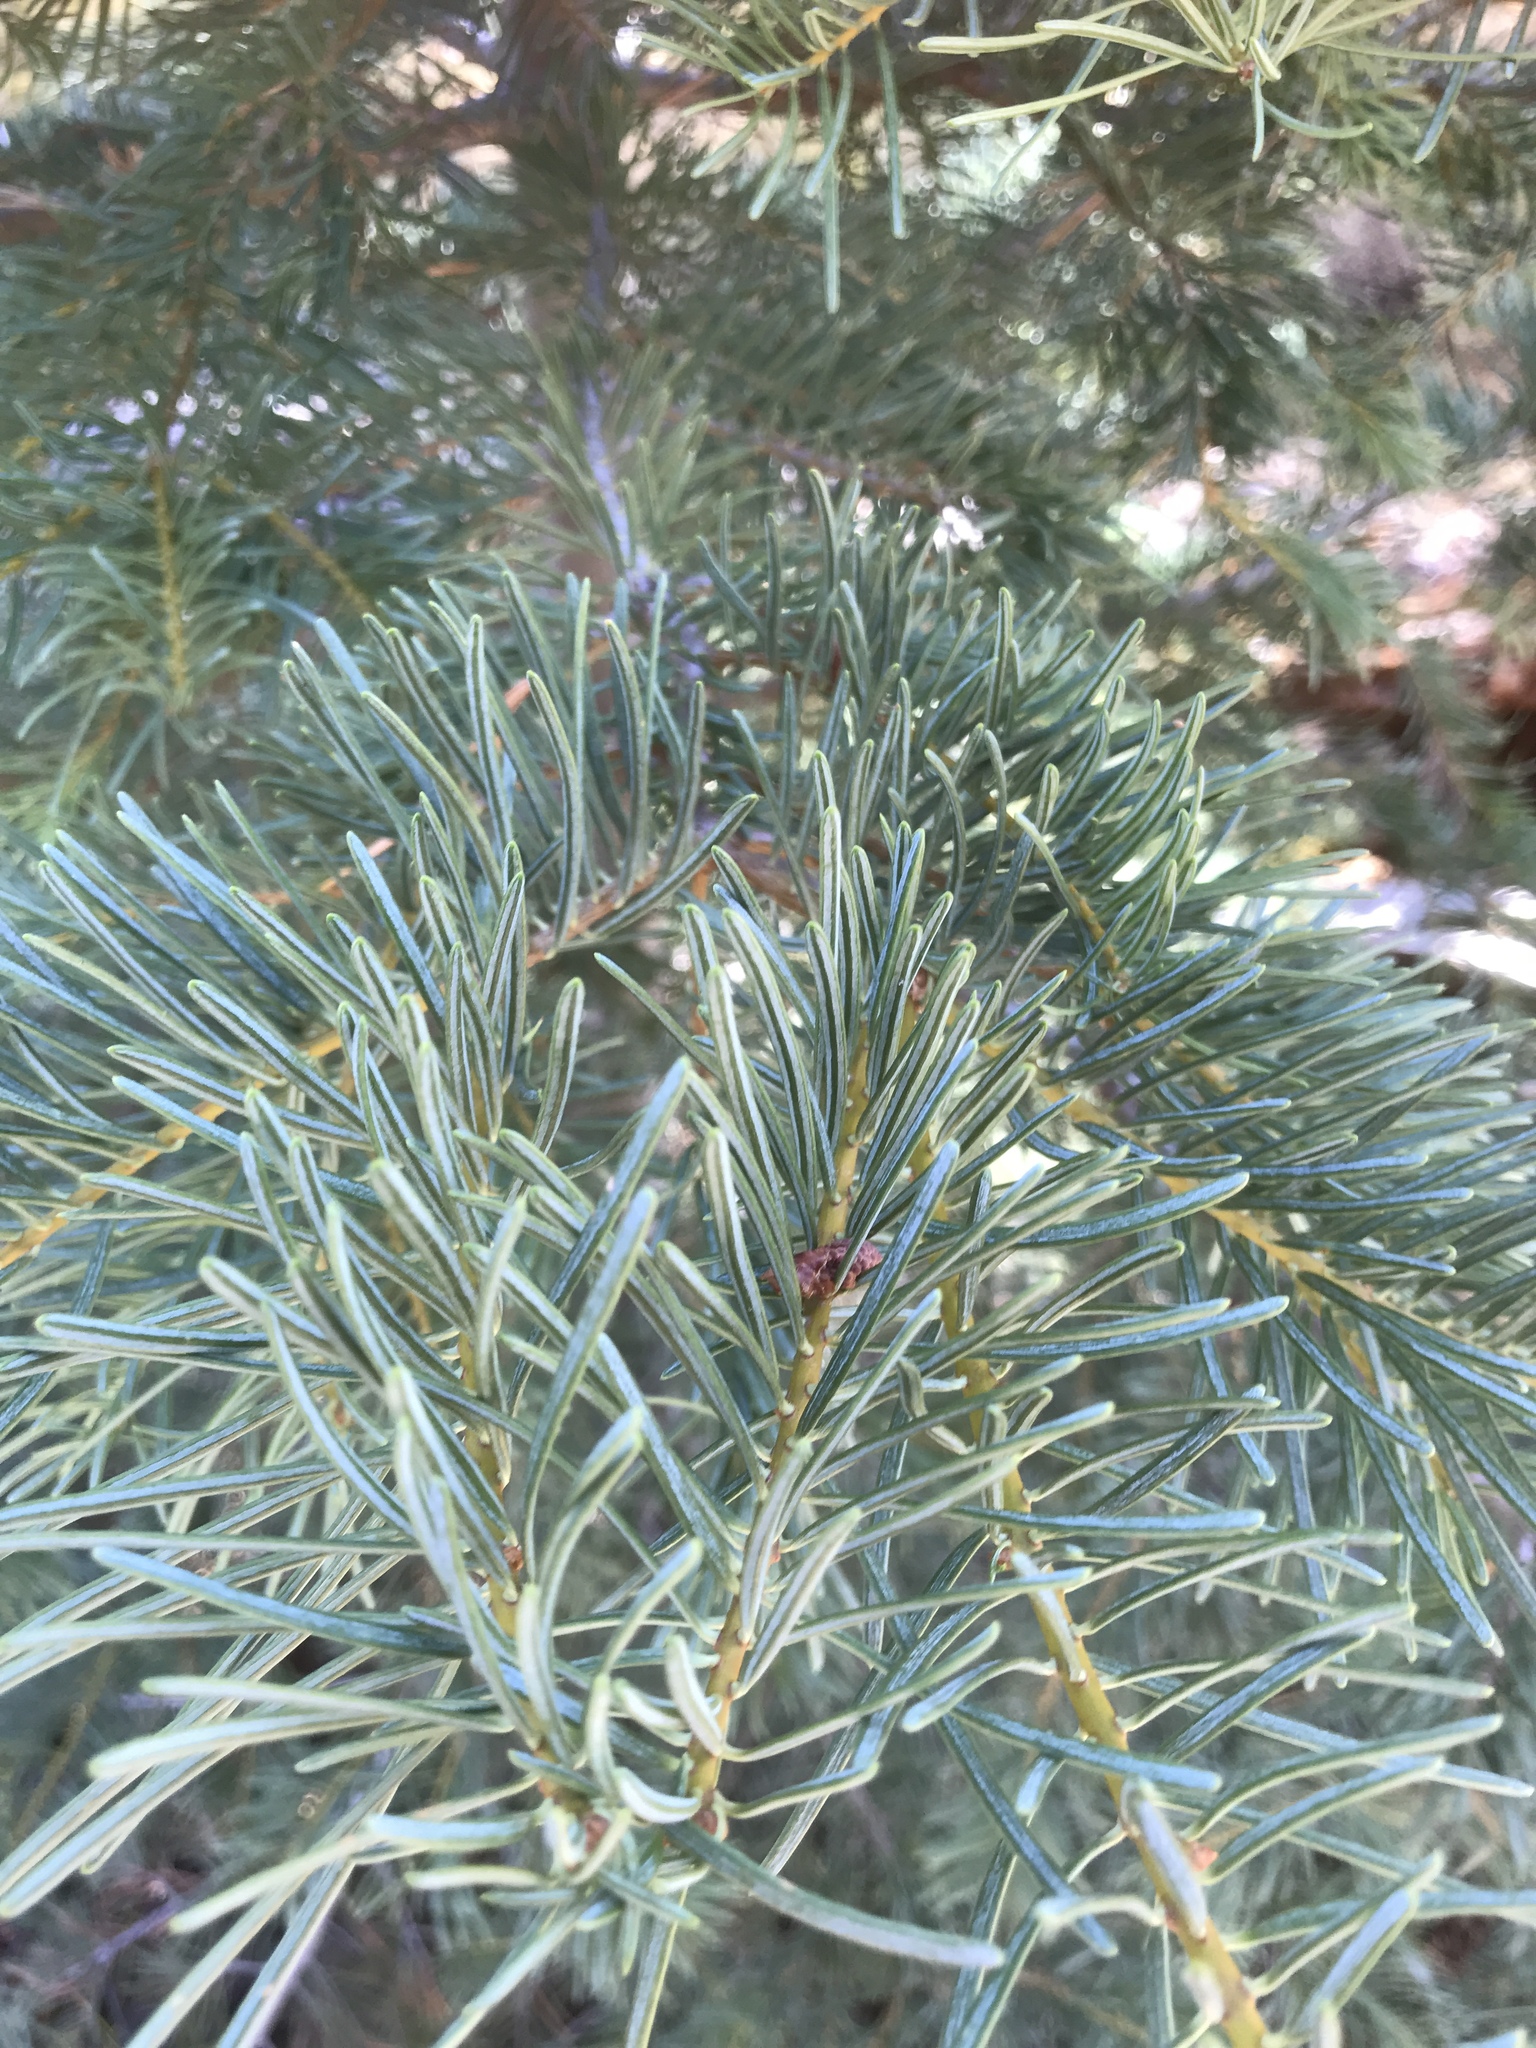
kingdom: Plantae
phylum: Tracheophyta
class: Pinopsida
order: Pinales
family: Pinaceae
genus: Abies
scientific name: Abies concolor
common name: Colorado fir
